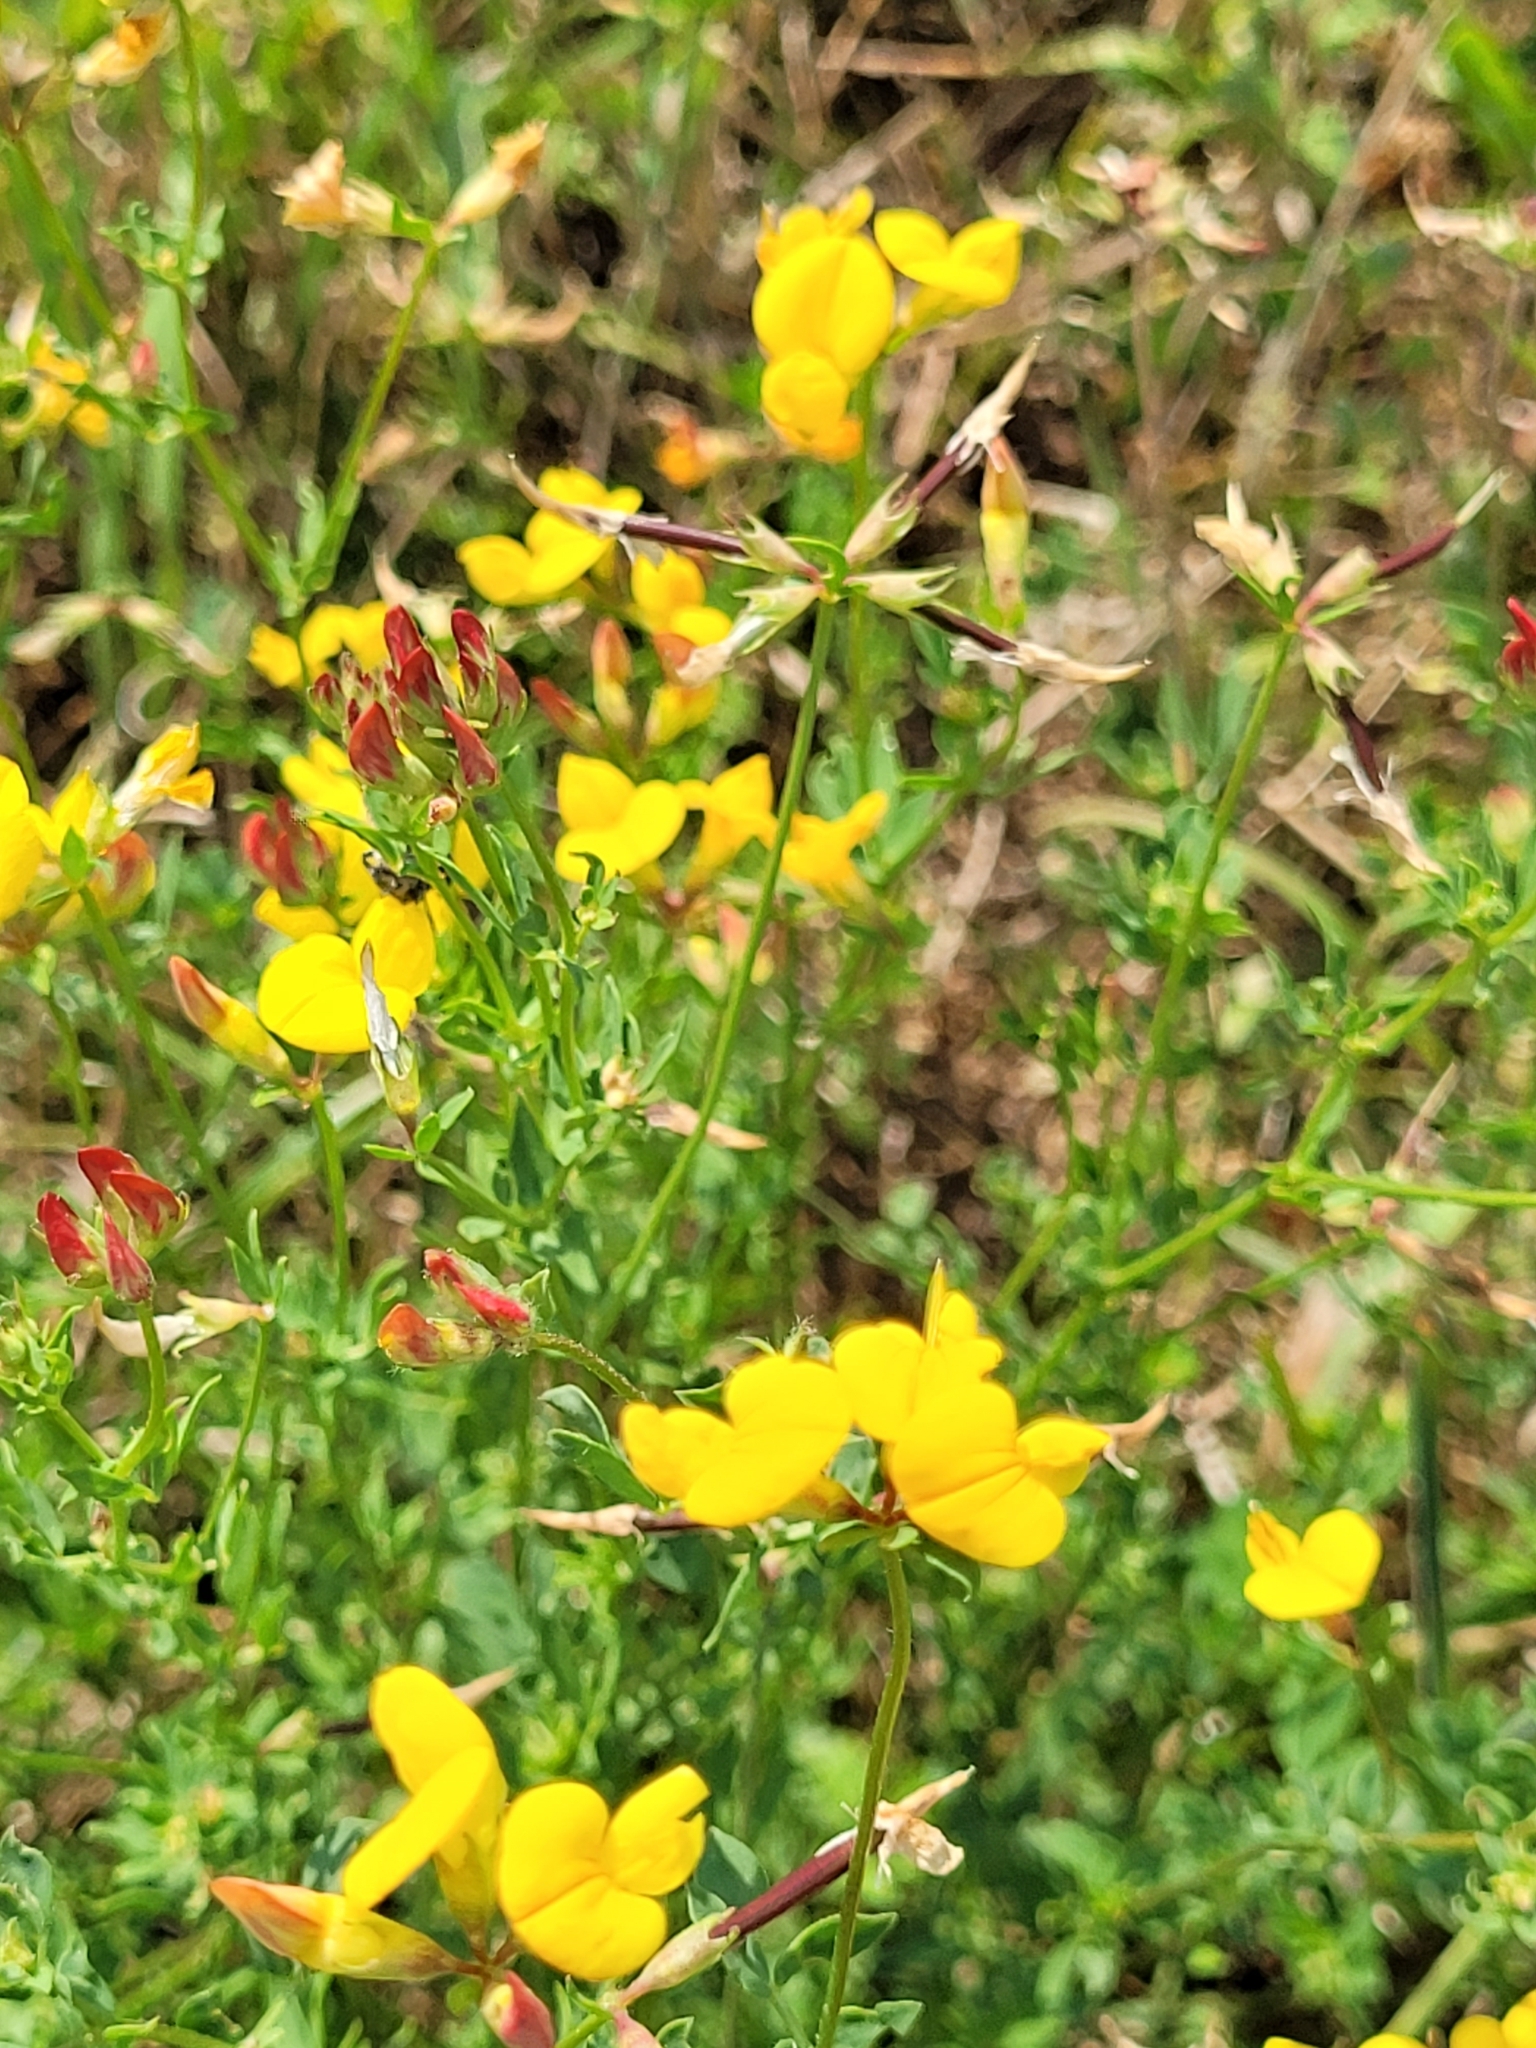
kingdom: Plantae
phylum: Tracheophyta
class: Magnoliopsida
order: Fabales
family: Fabaceae
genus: Lotus
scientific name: Lotus corniculatus
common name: Common bird's-foot-trefoil
